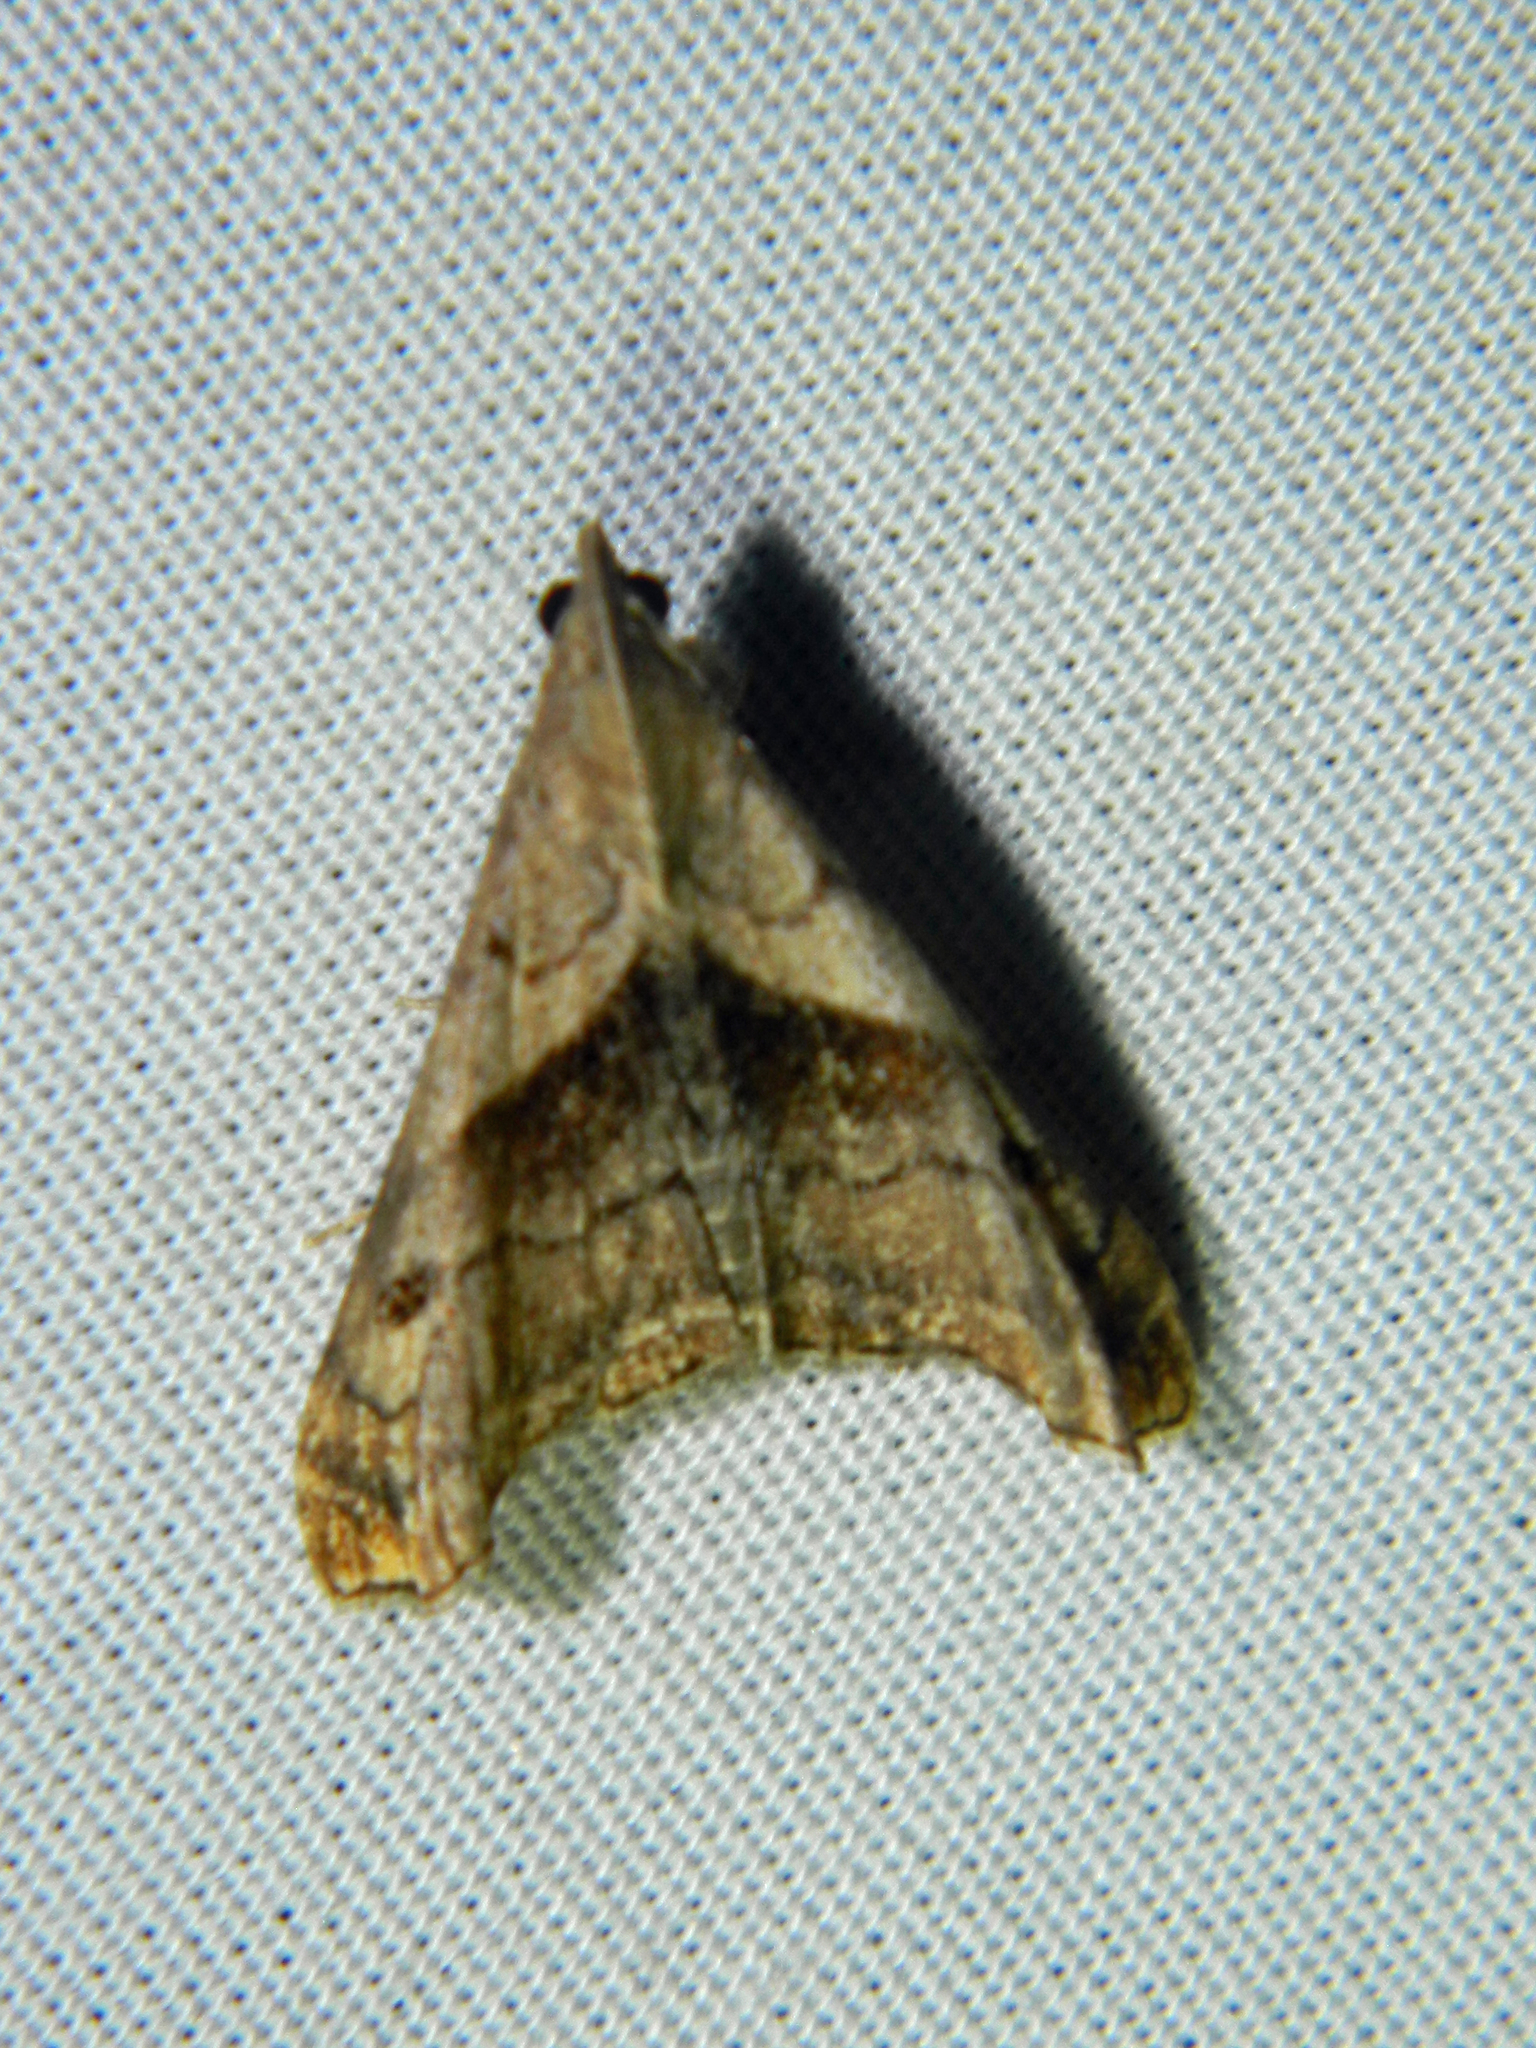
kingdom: Animalia
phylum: Arthropoda
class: Insecta
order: Lepidoptera
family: Erebidae
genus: Palthis
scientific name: Palthis angulalis
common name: Dark-spotted palthis moth
